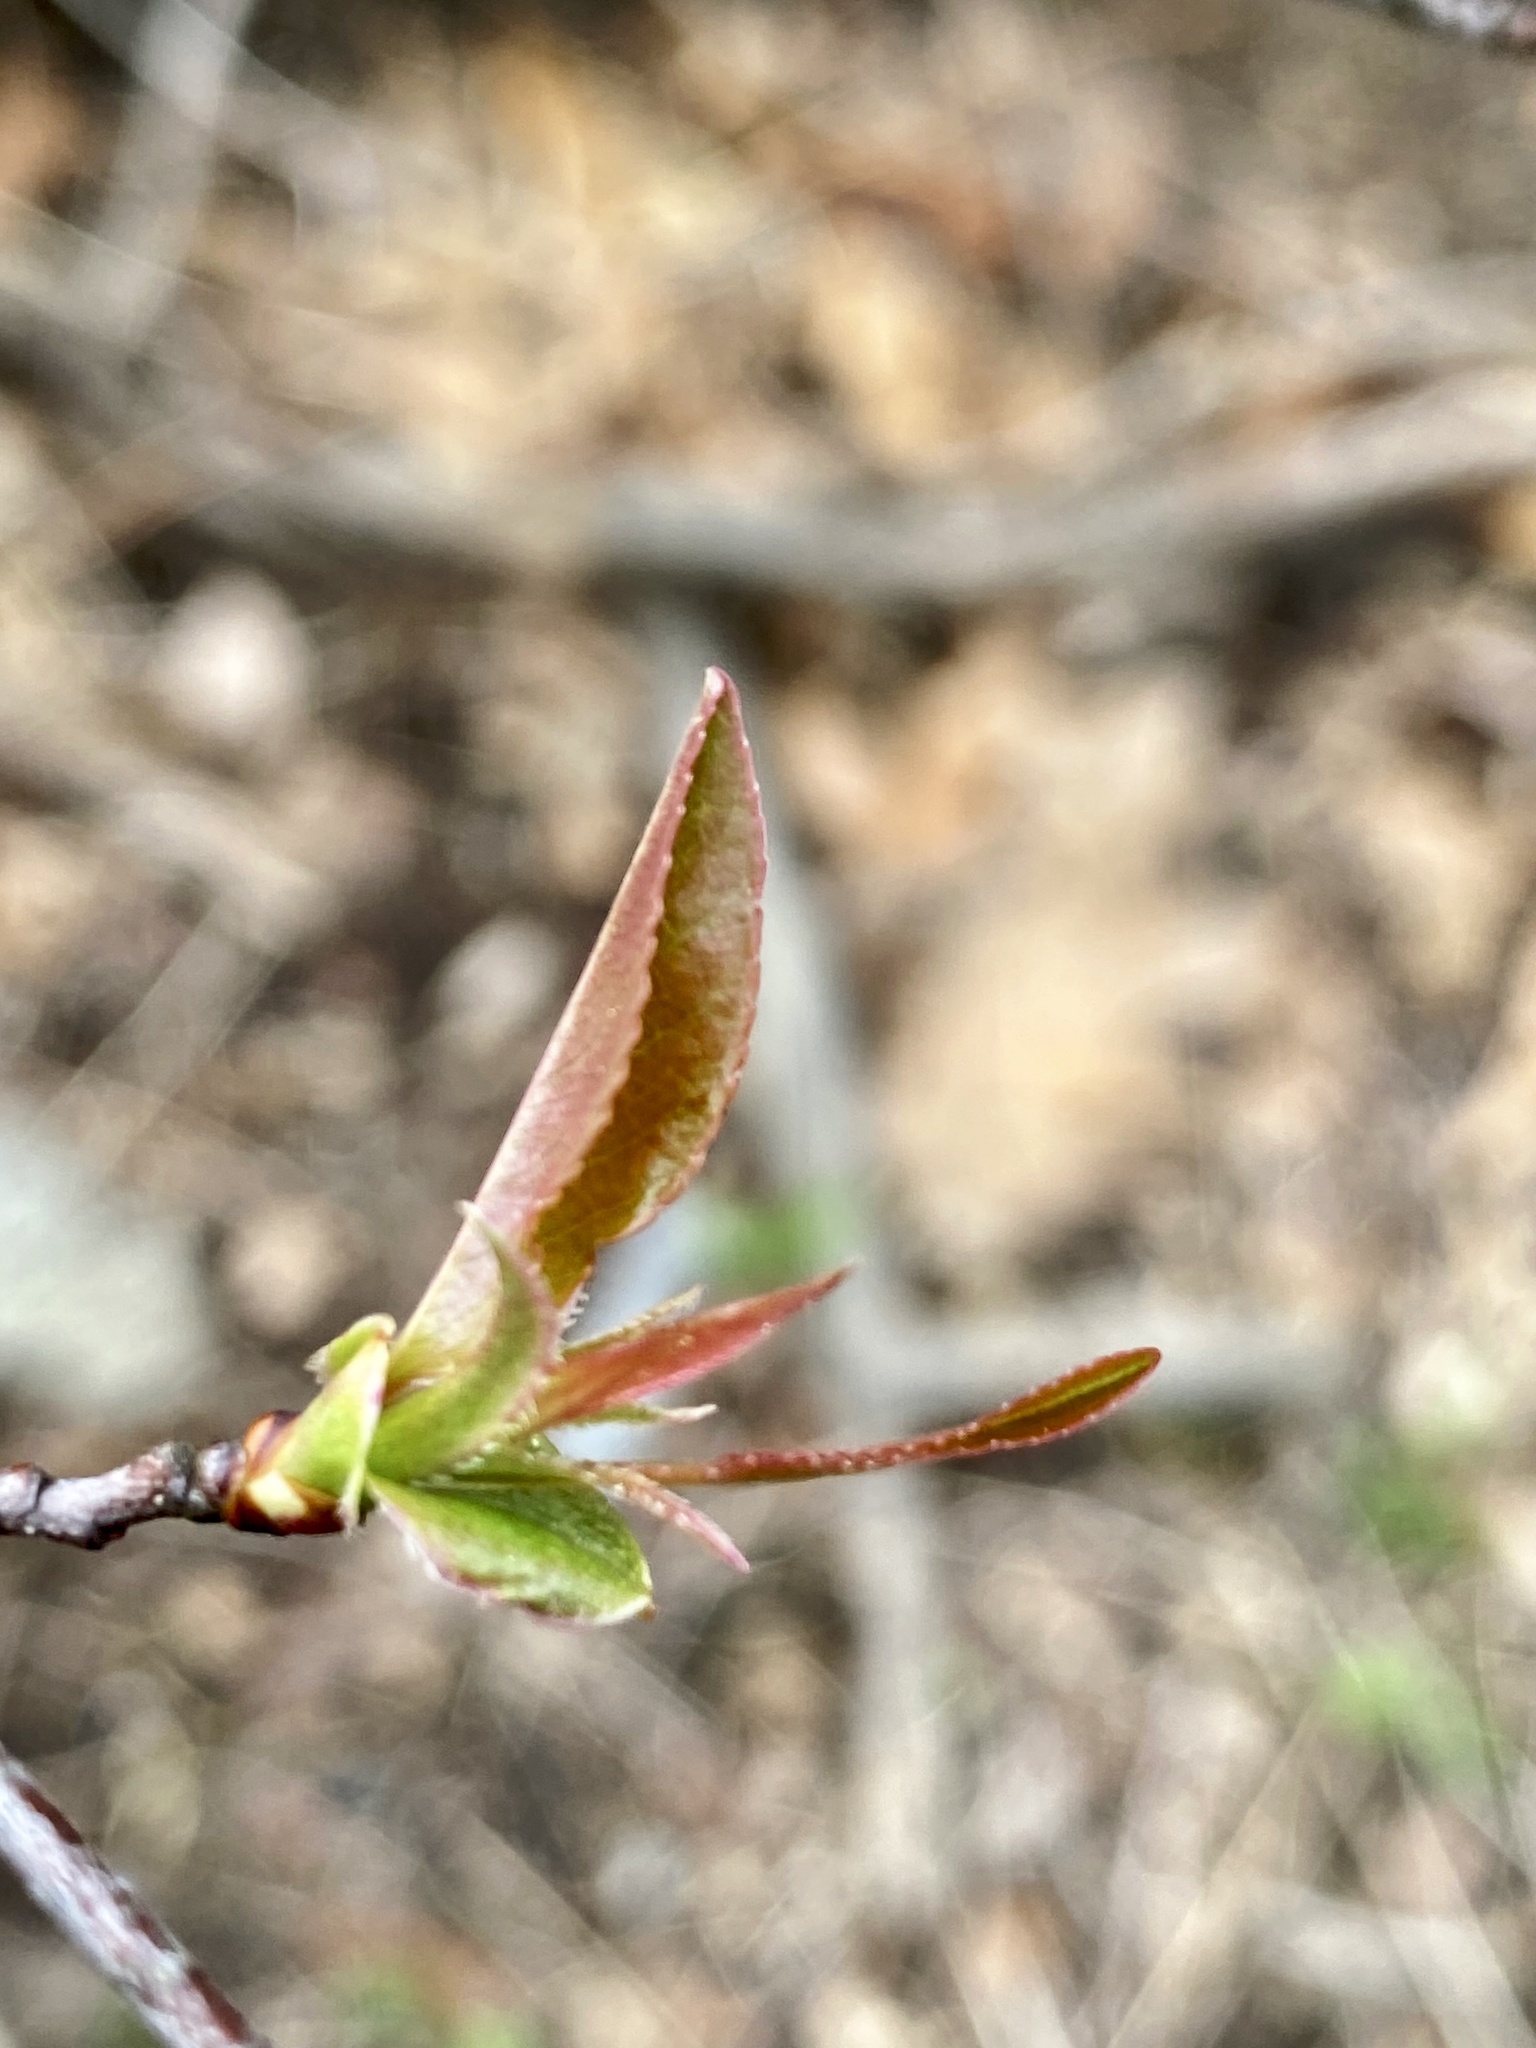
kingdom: Plantae
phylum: Tracheophyta
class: Magnoliopsida
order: Rosales
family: Rosaceae
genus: Prunus
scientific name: Prunus serotina
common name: Black cherry
